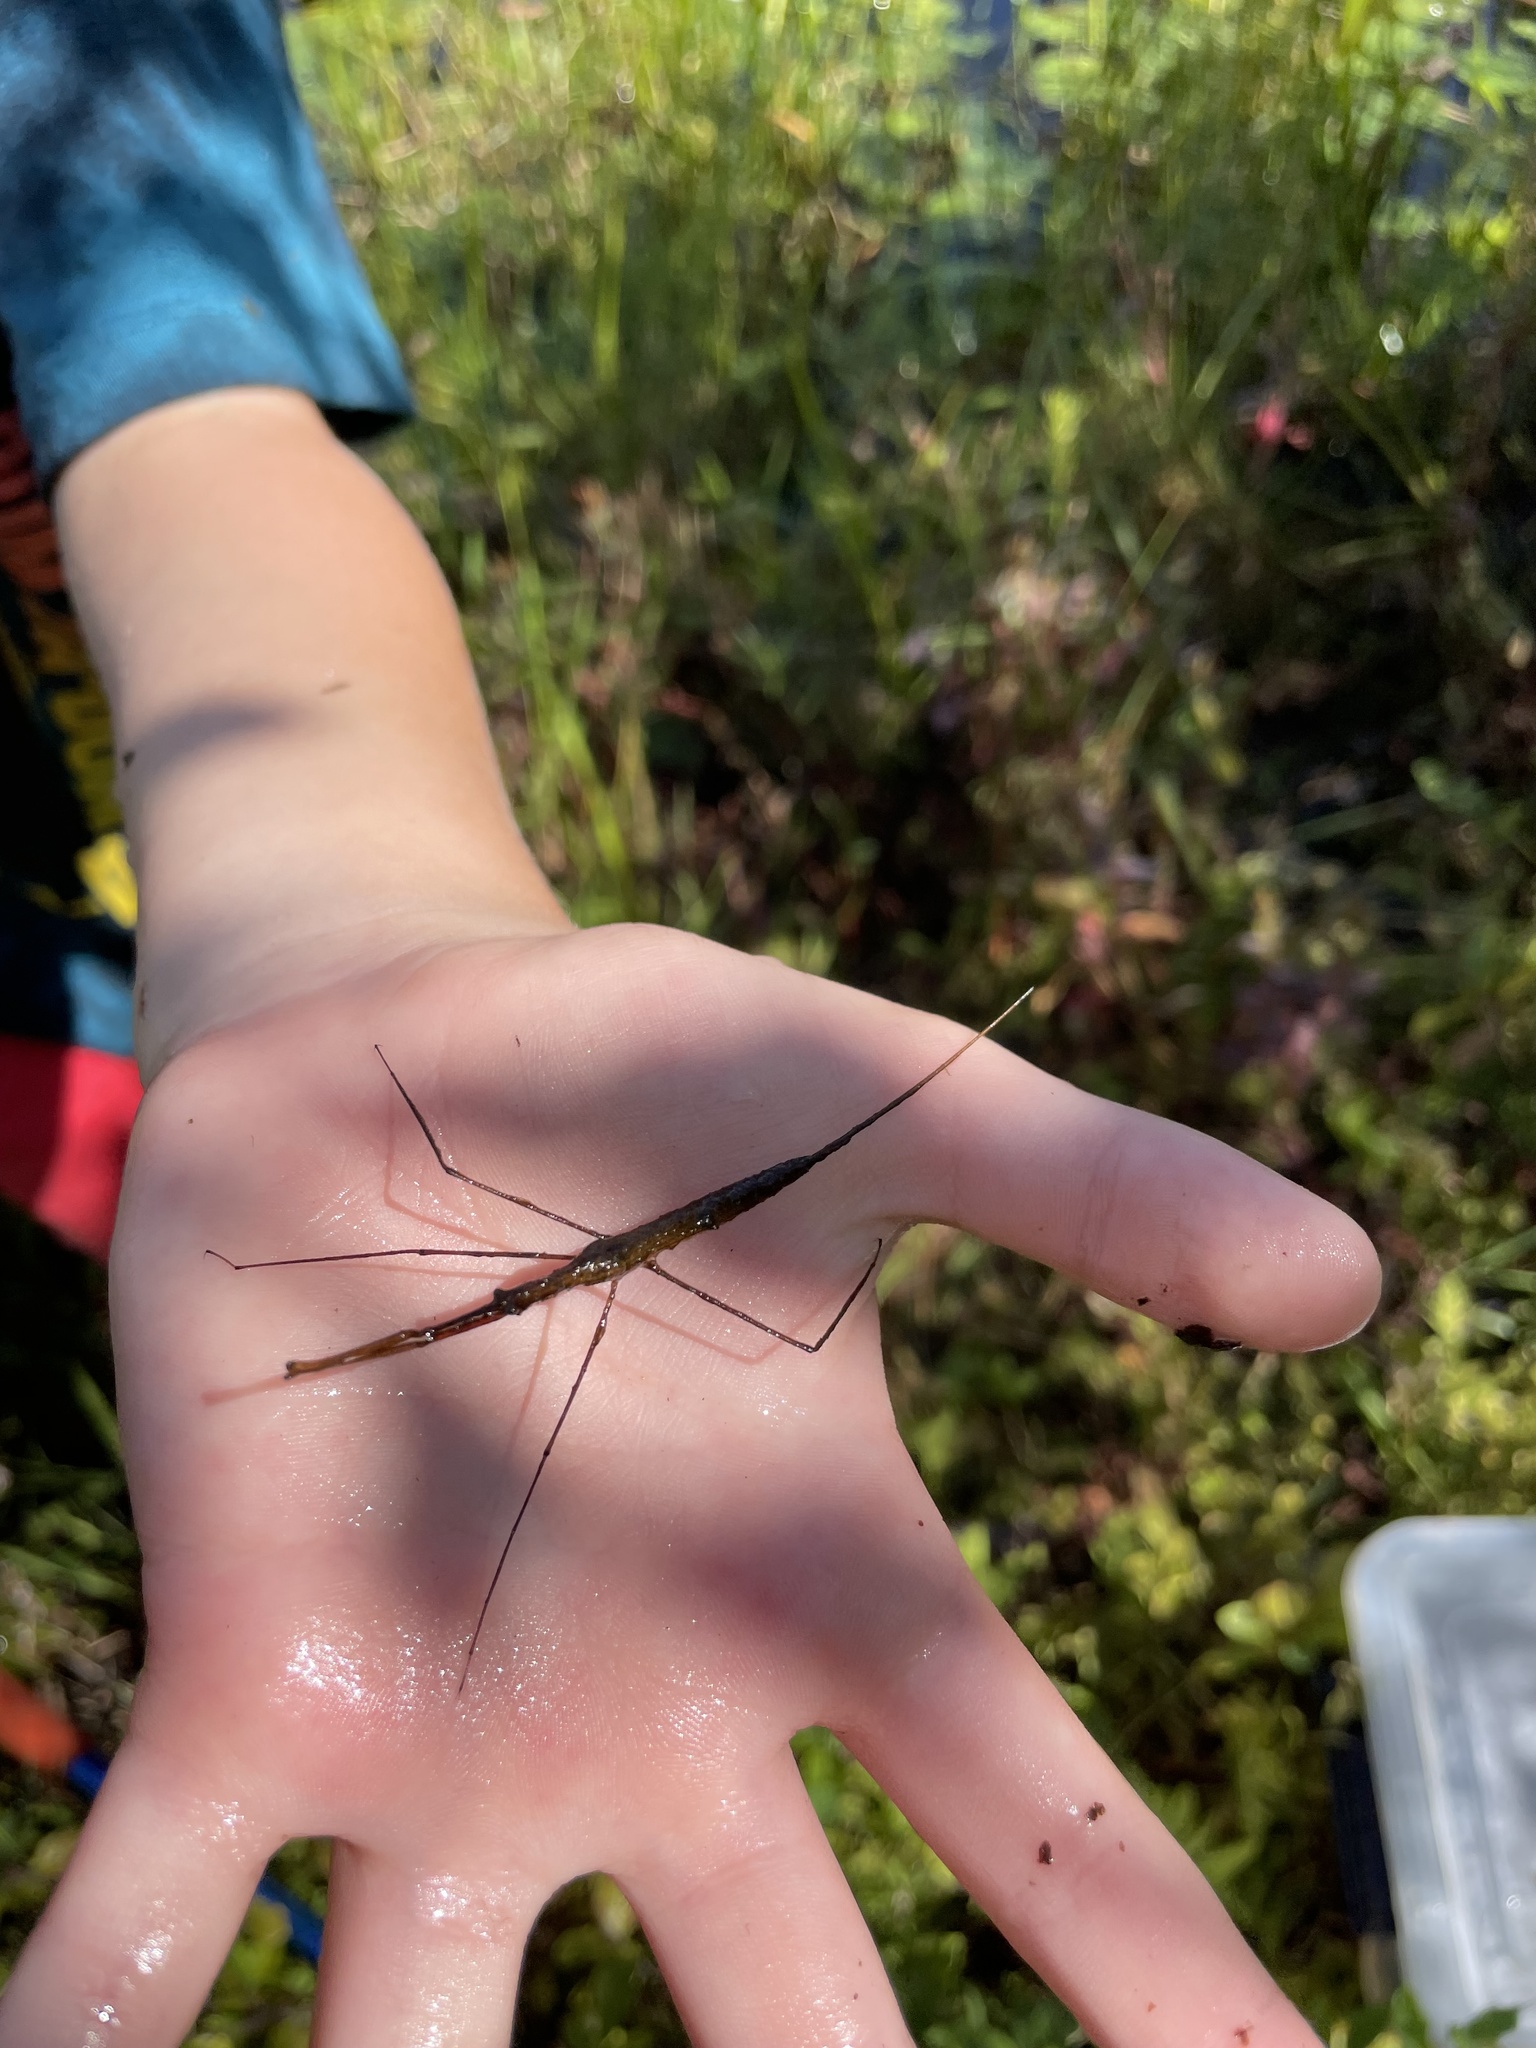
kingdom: Animalia
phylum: Arthropoda
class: Insecta
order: Hemiptera
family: Nepidae
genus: Ranatra
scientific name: Ranatra
